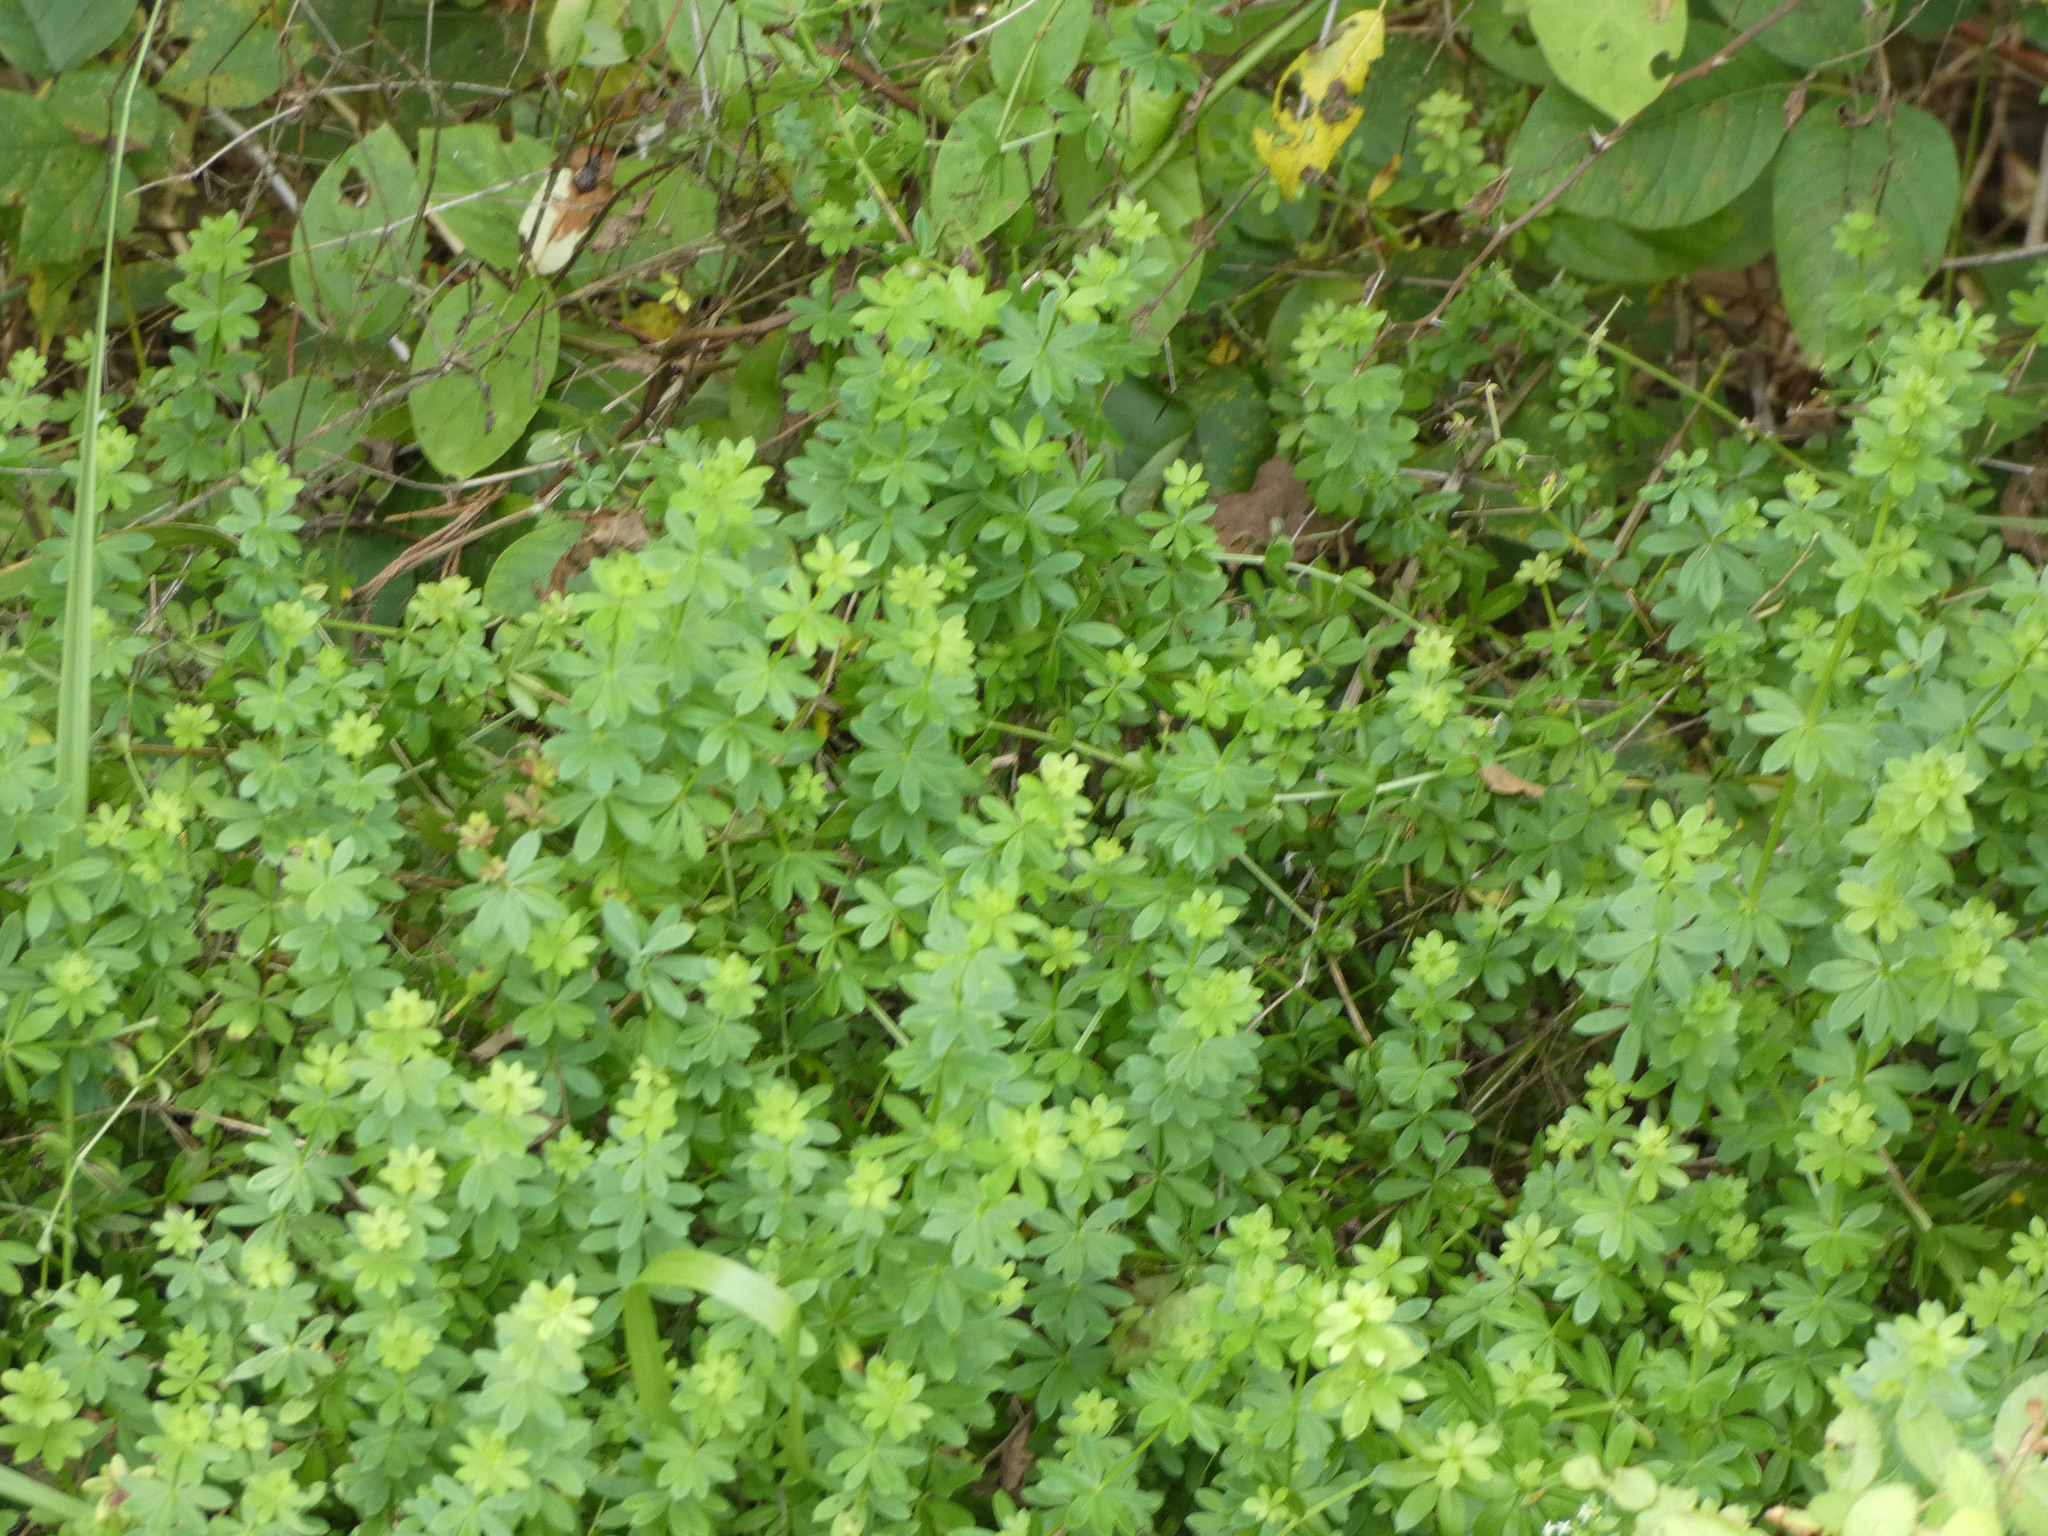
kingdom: Plantae
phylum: Tracheophyta
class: Magnoliopsida
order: Gentianales
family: Rubiaceae
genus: Galium
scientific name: Galium mollugo
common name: Hedge bedstraw
